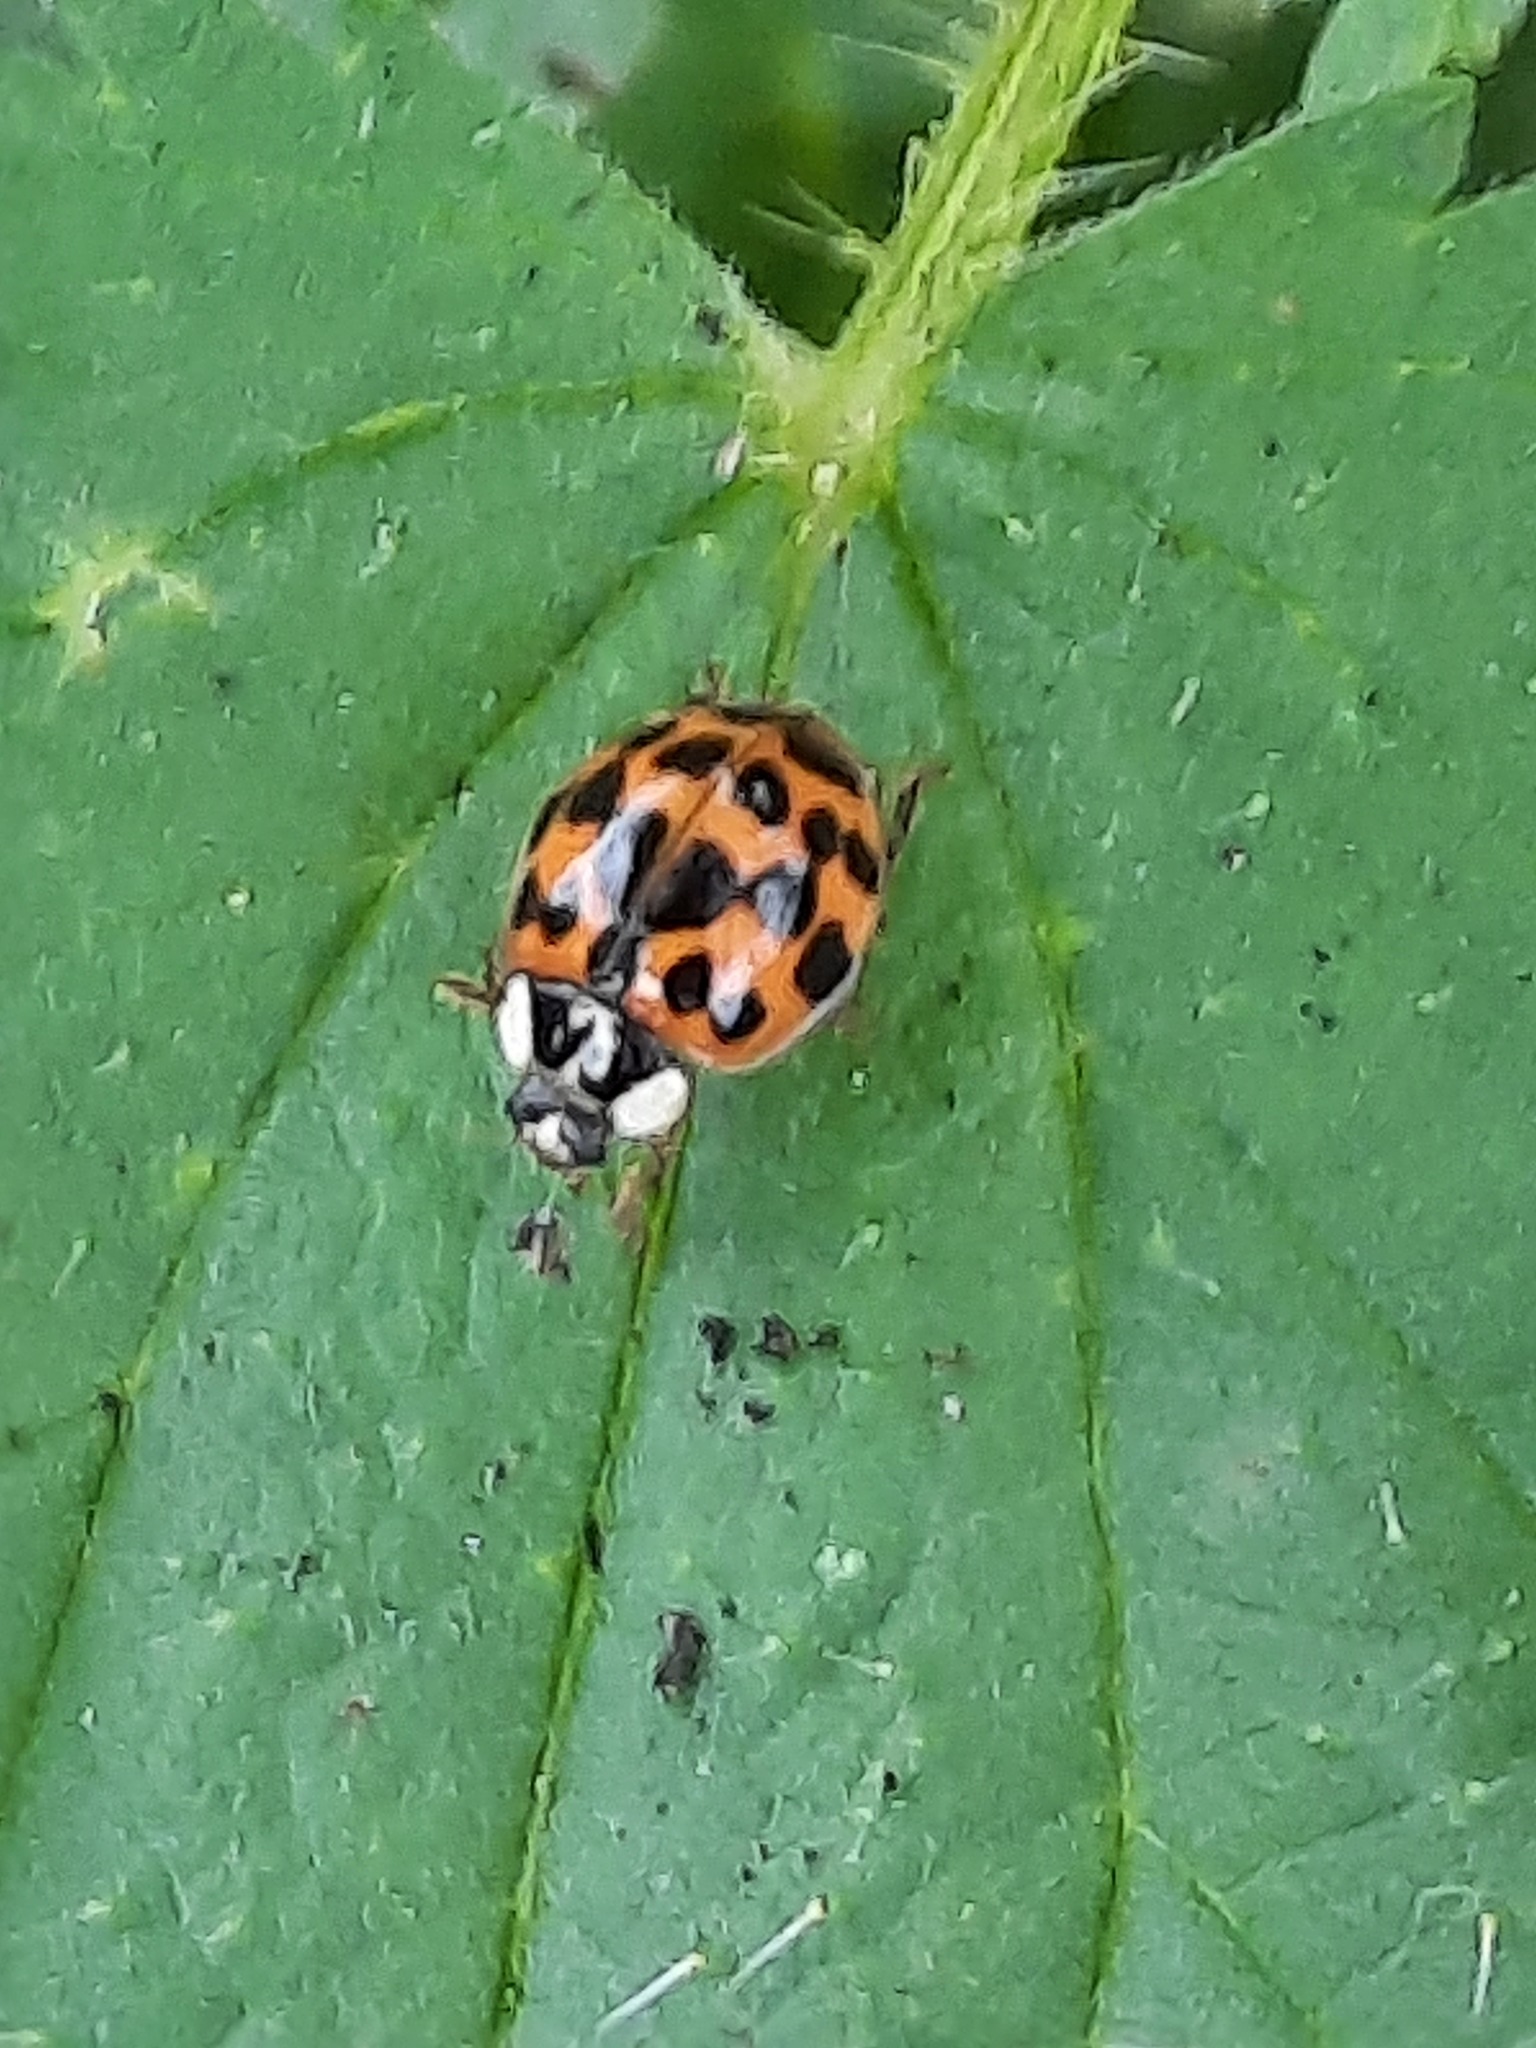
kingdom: Animalia
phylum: Arthropoda
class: Insecta
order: Coleoptera
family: Coccinellidae
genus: Harmonia
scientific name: Harmonia axyridis
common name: Harlequin ladybird
